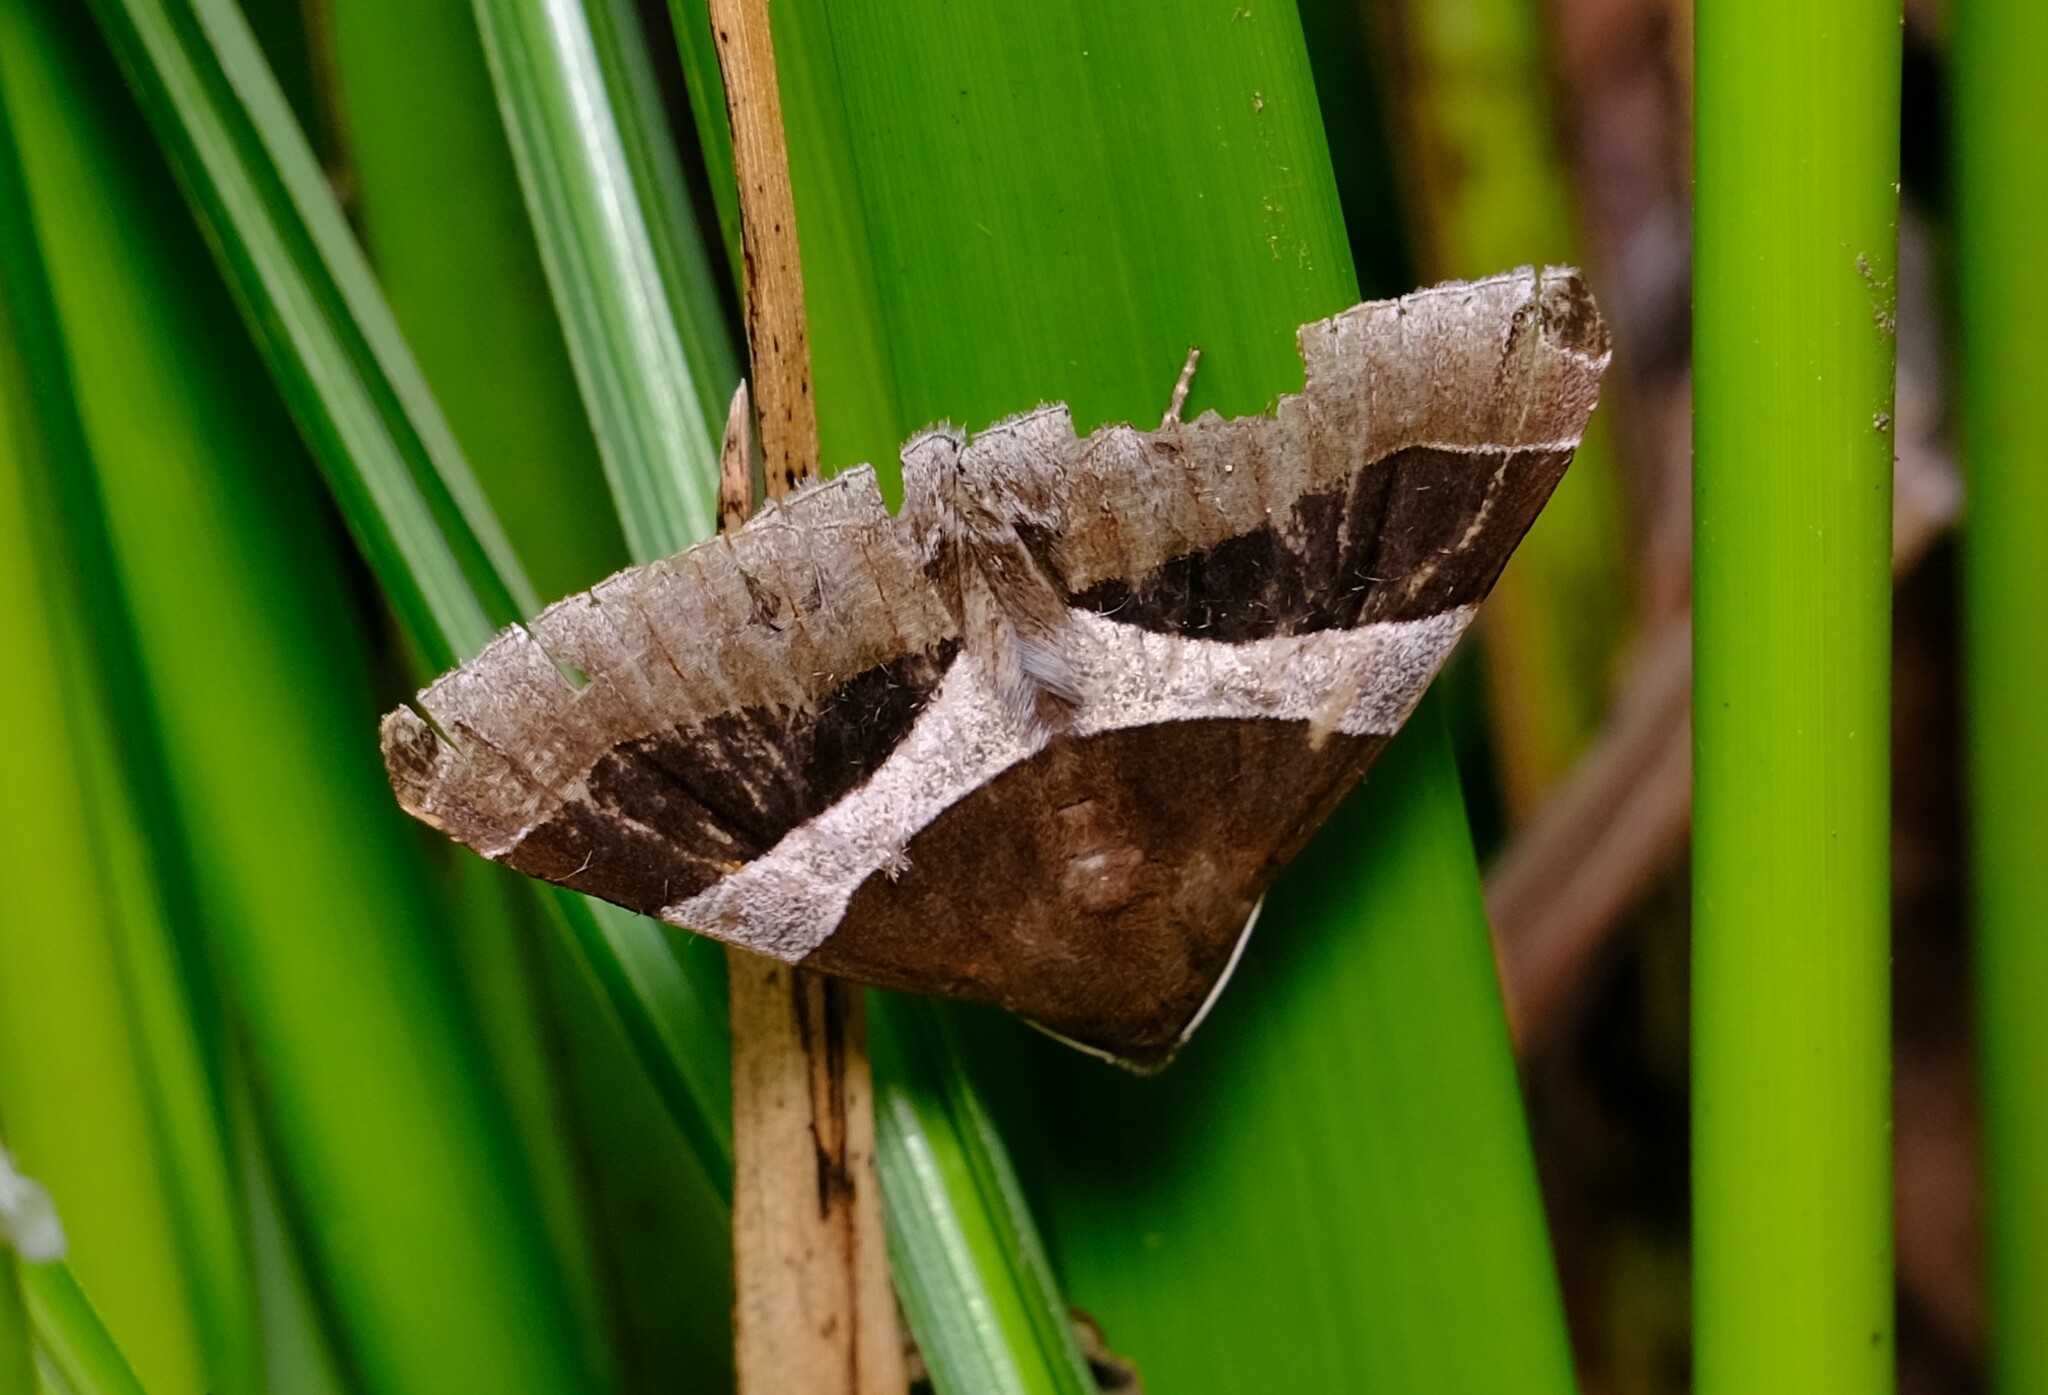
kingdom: Animalia
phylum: Arthropoda
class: Insecta
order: Lepidoptera
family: Erebidae
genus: Dysgonia
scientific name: Dysgonia constricta
